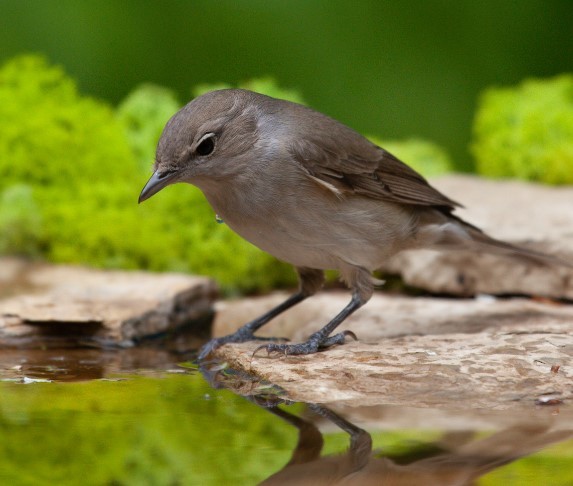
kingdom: Animalia
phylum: Chordata
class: Aves
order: Passeriformes
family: Sylviidae
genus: Sylvia
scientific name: Sylvia borin
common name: Garden warbler
